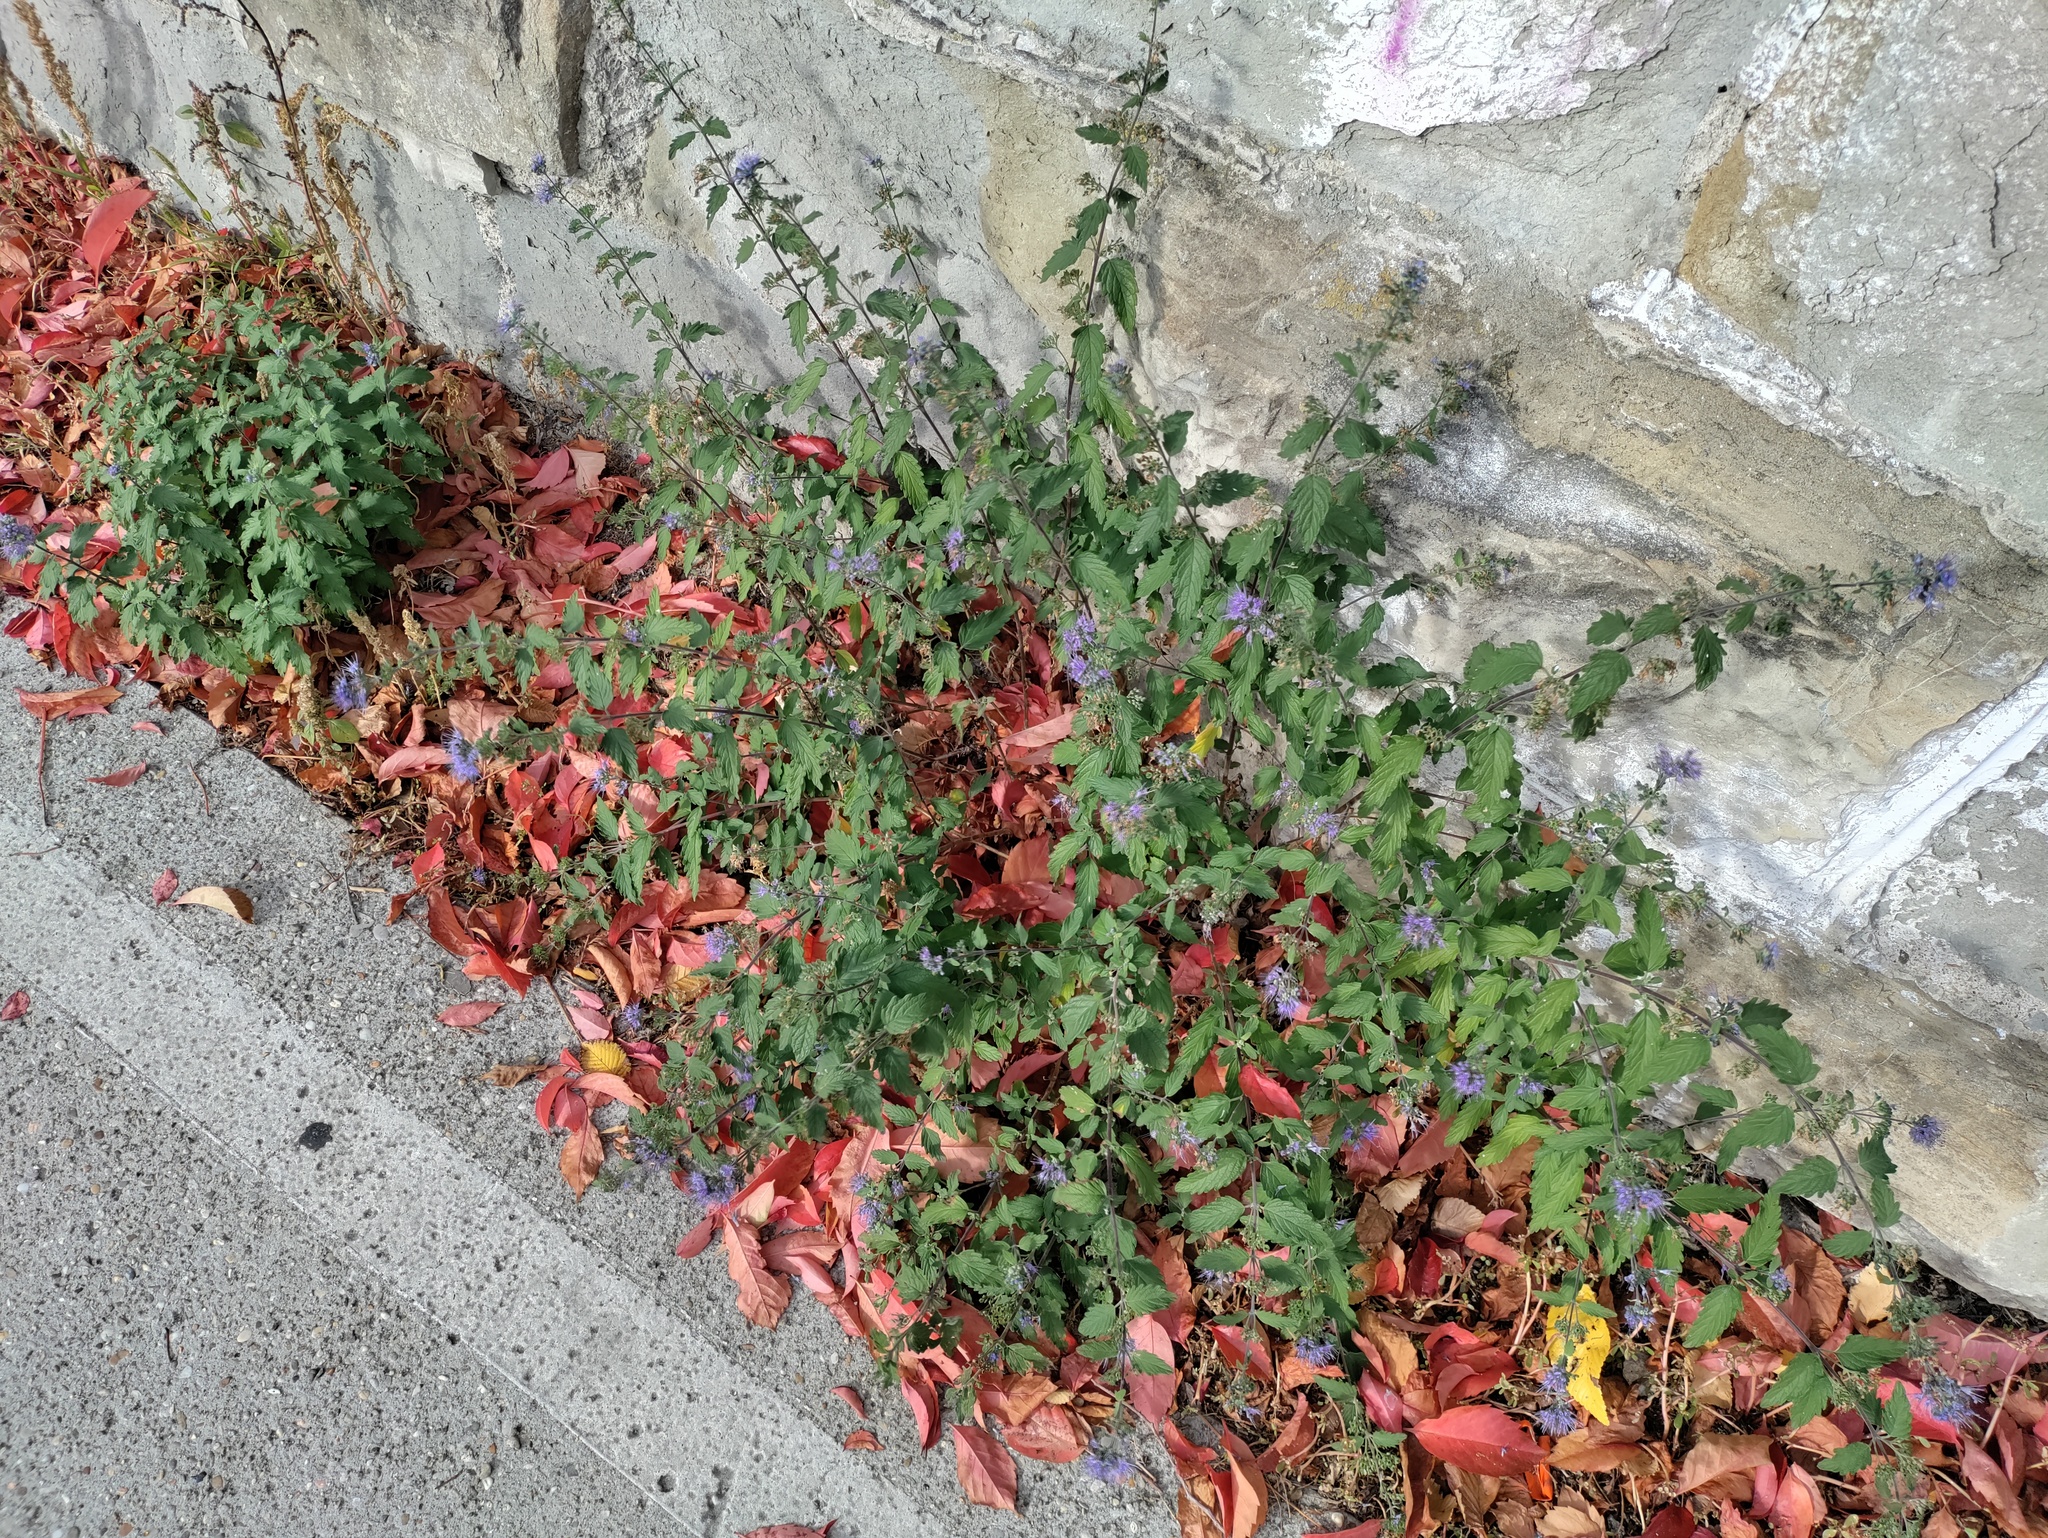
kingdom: Plantae
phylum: Tracheophyta
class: Magnoliopsida
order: Lamiales
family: Lamiaceae
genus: Caryopteris
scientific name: Caryopteris clandonensis
